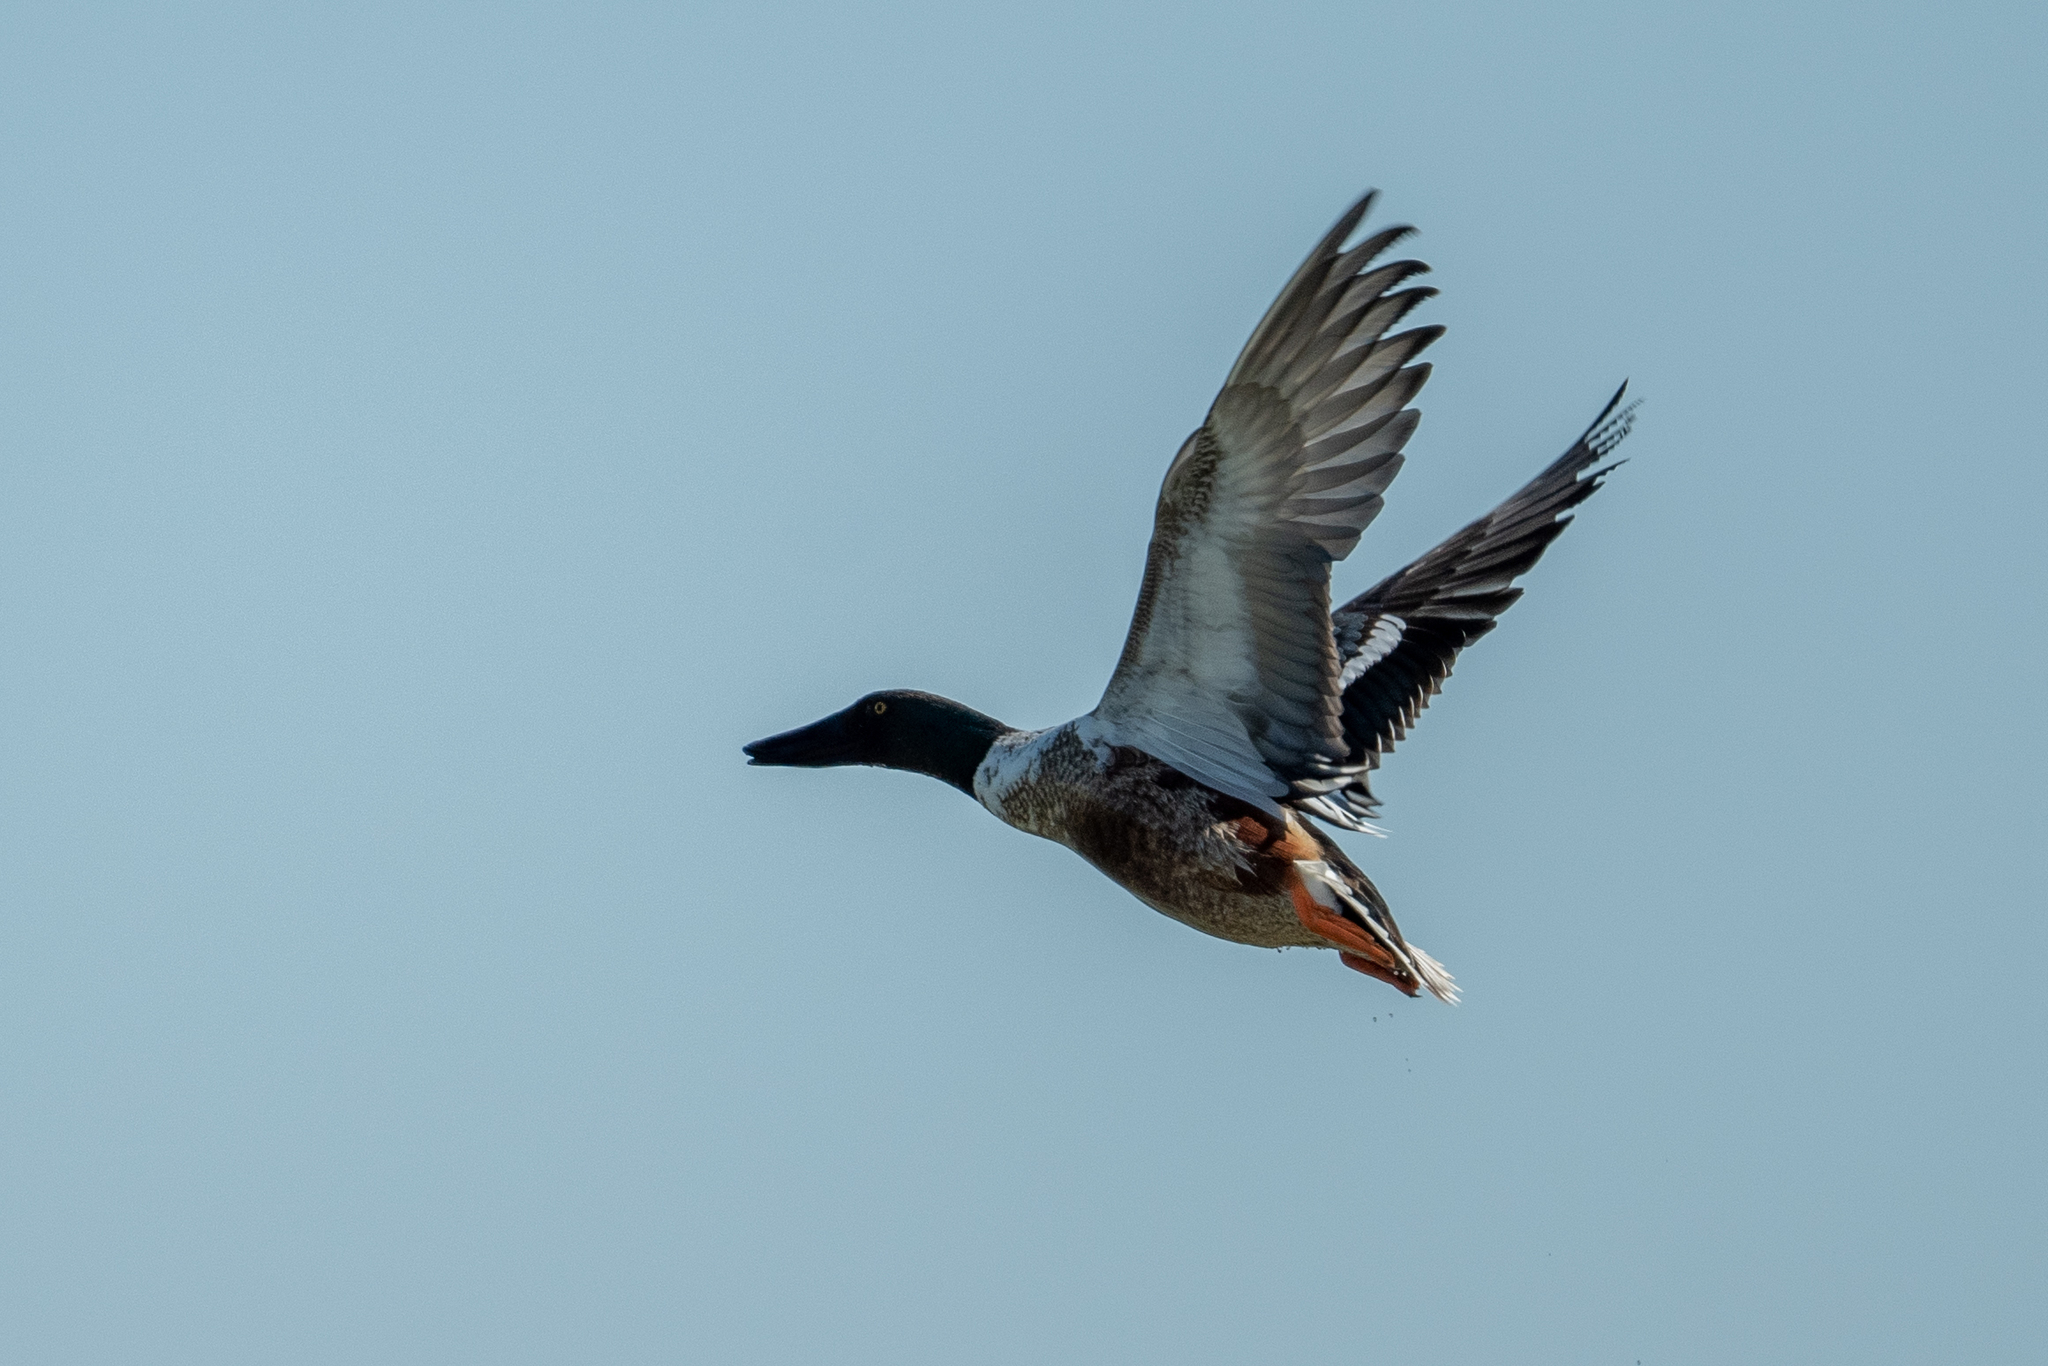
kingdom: Animalia
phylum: Chordata
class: Aves
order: Anseriformes
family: Anatidae
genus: Spatula
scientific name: Spatula clypeata
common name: Northern shoveler
